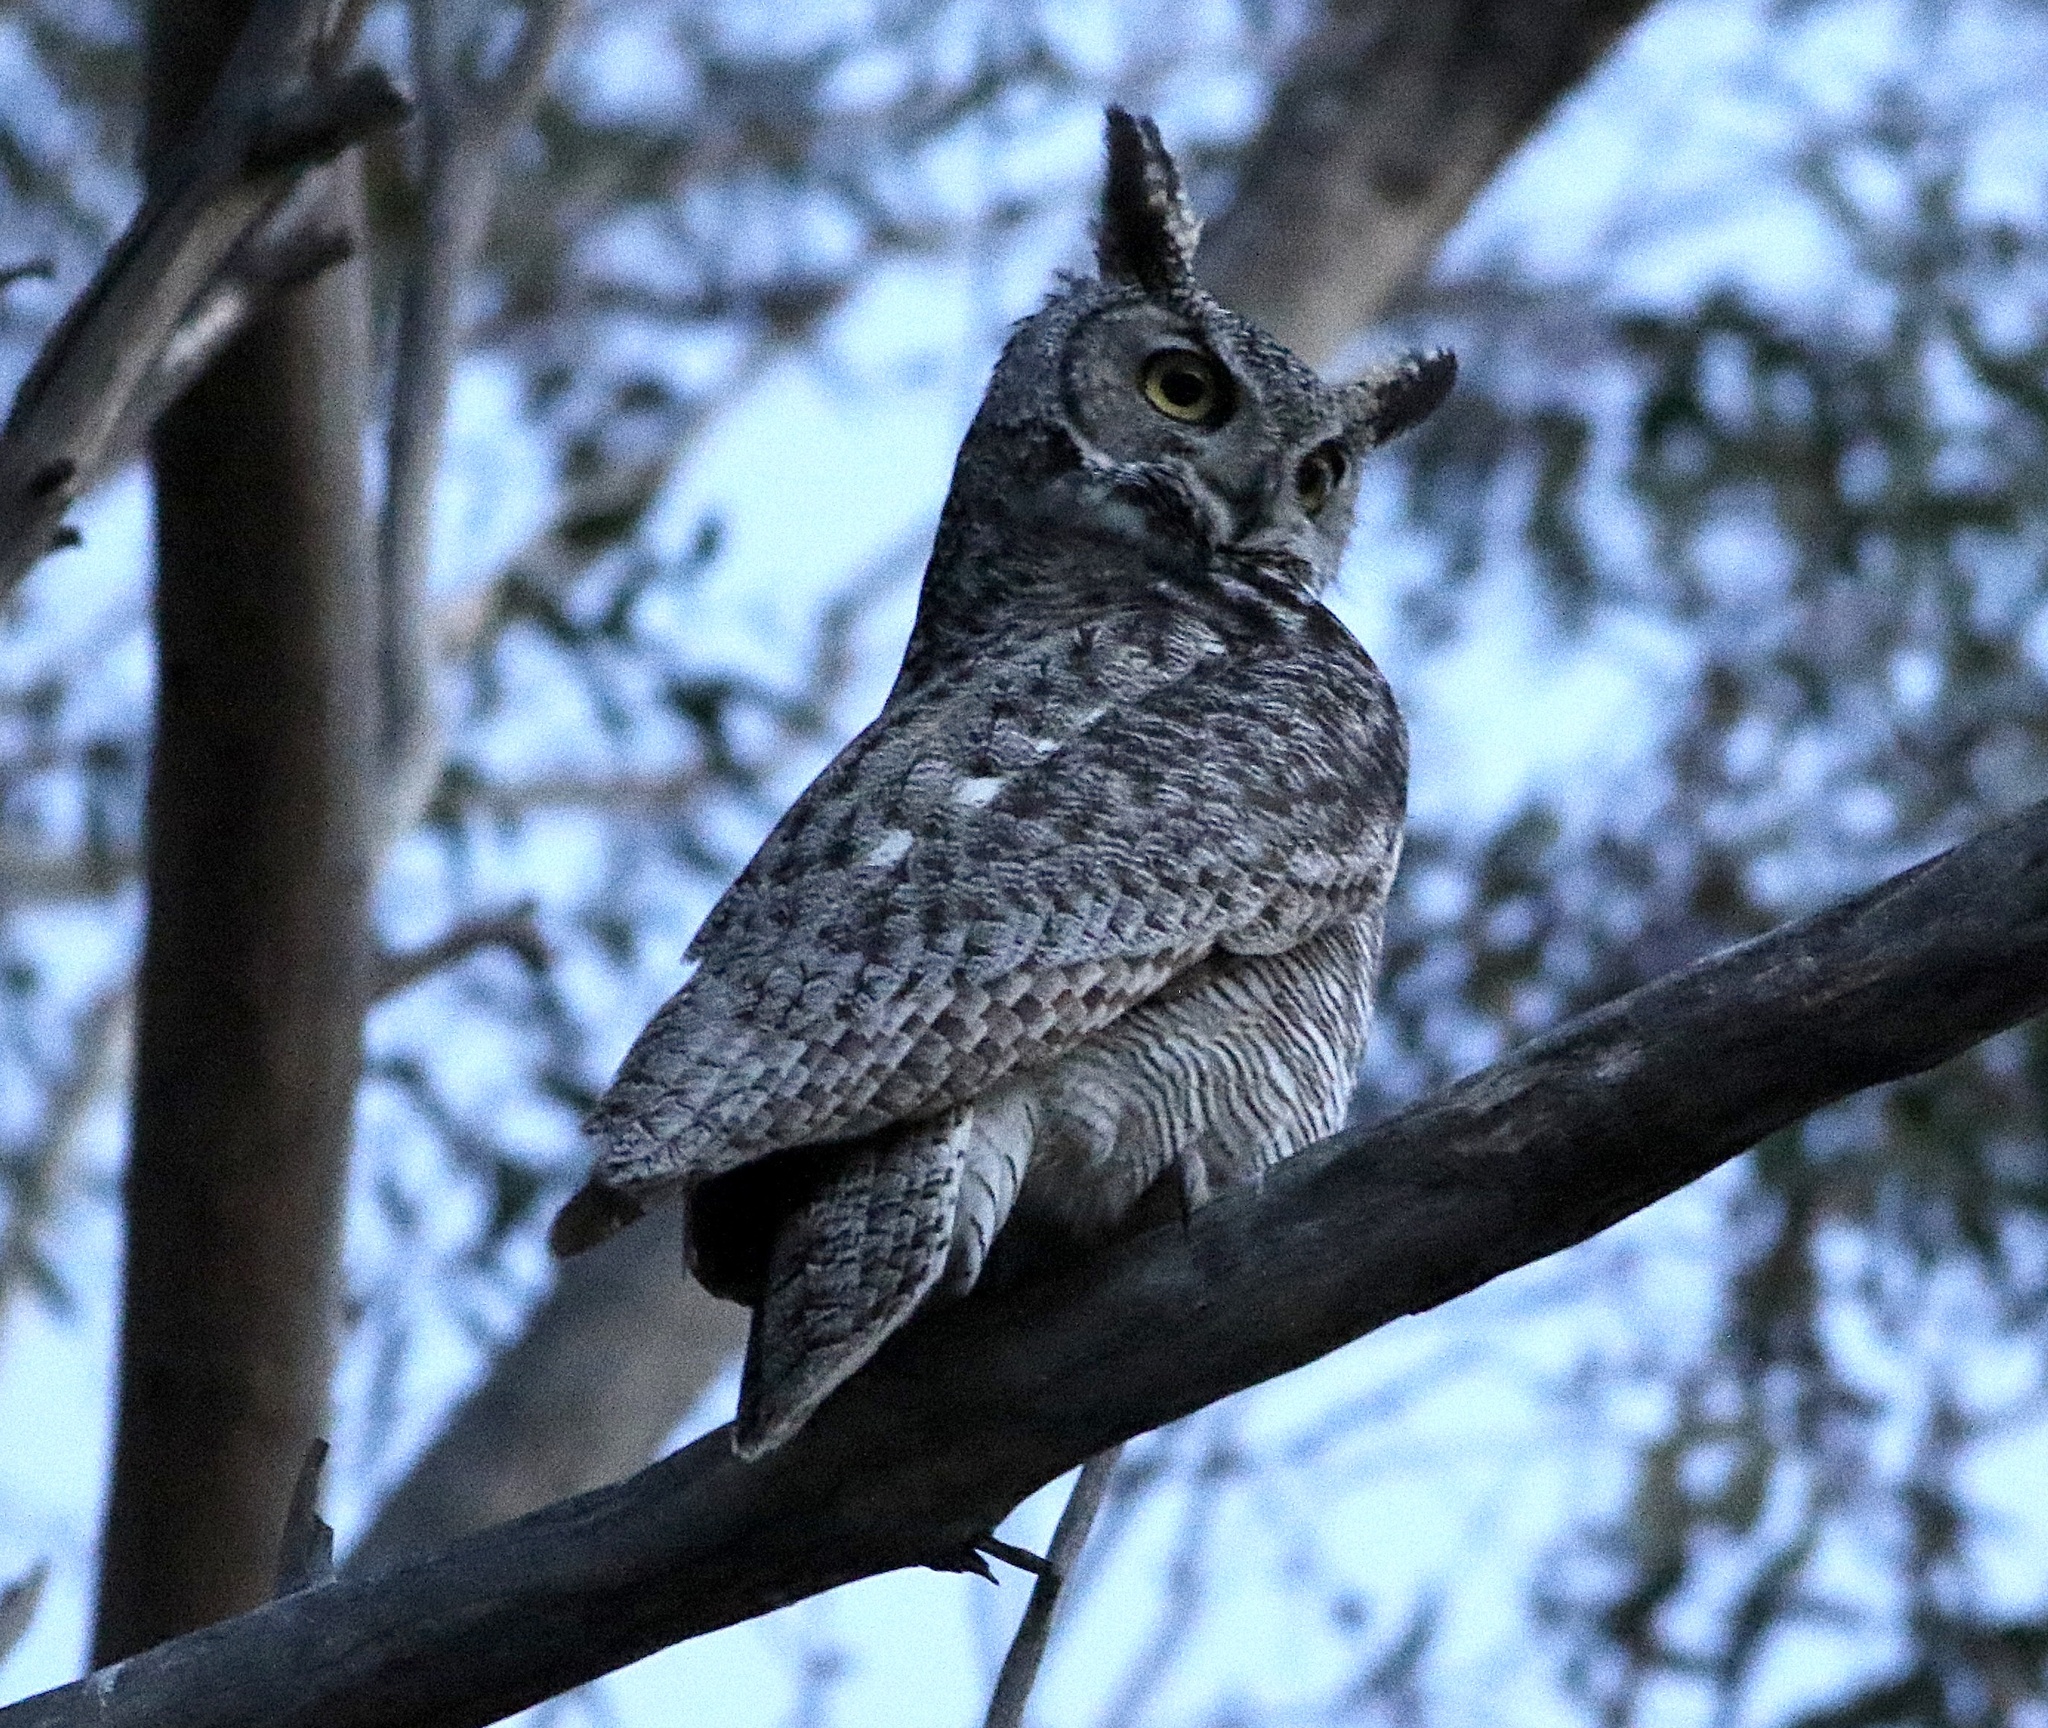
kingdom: Animalia
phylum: Chordata
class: Aves
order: Strigiformes
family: Strigidae
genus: Bubo
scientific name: Bubo virginianus
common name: Great horned owl
